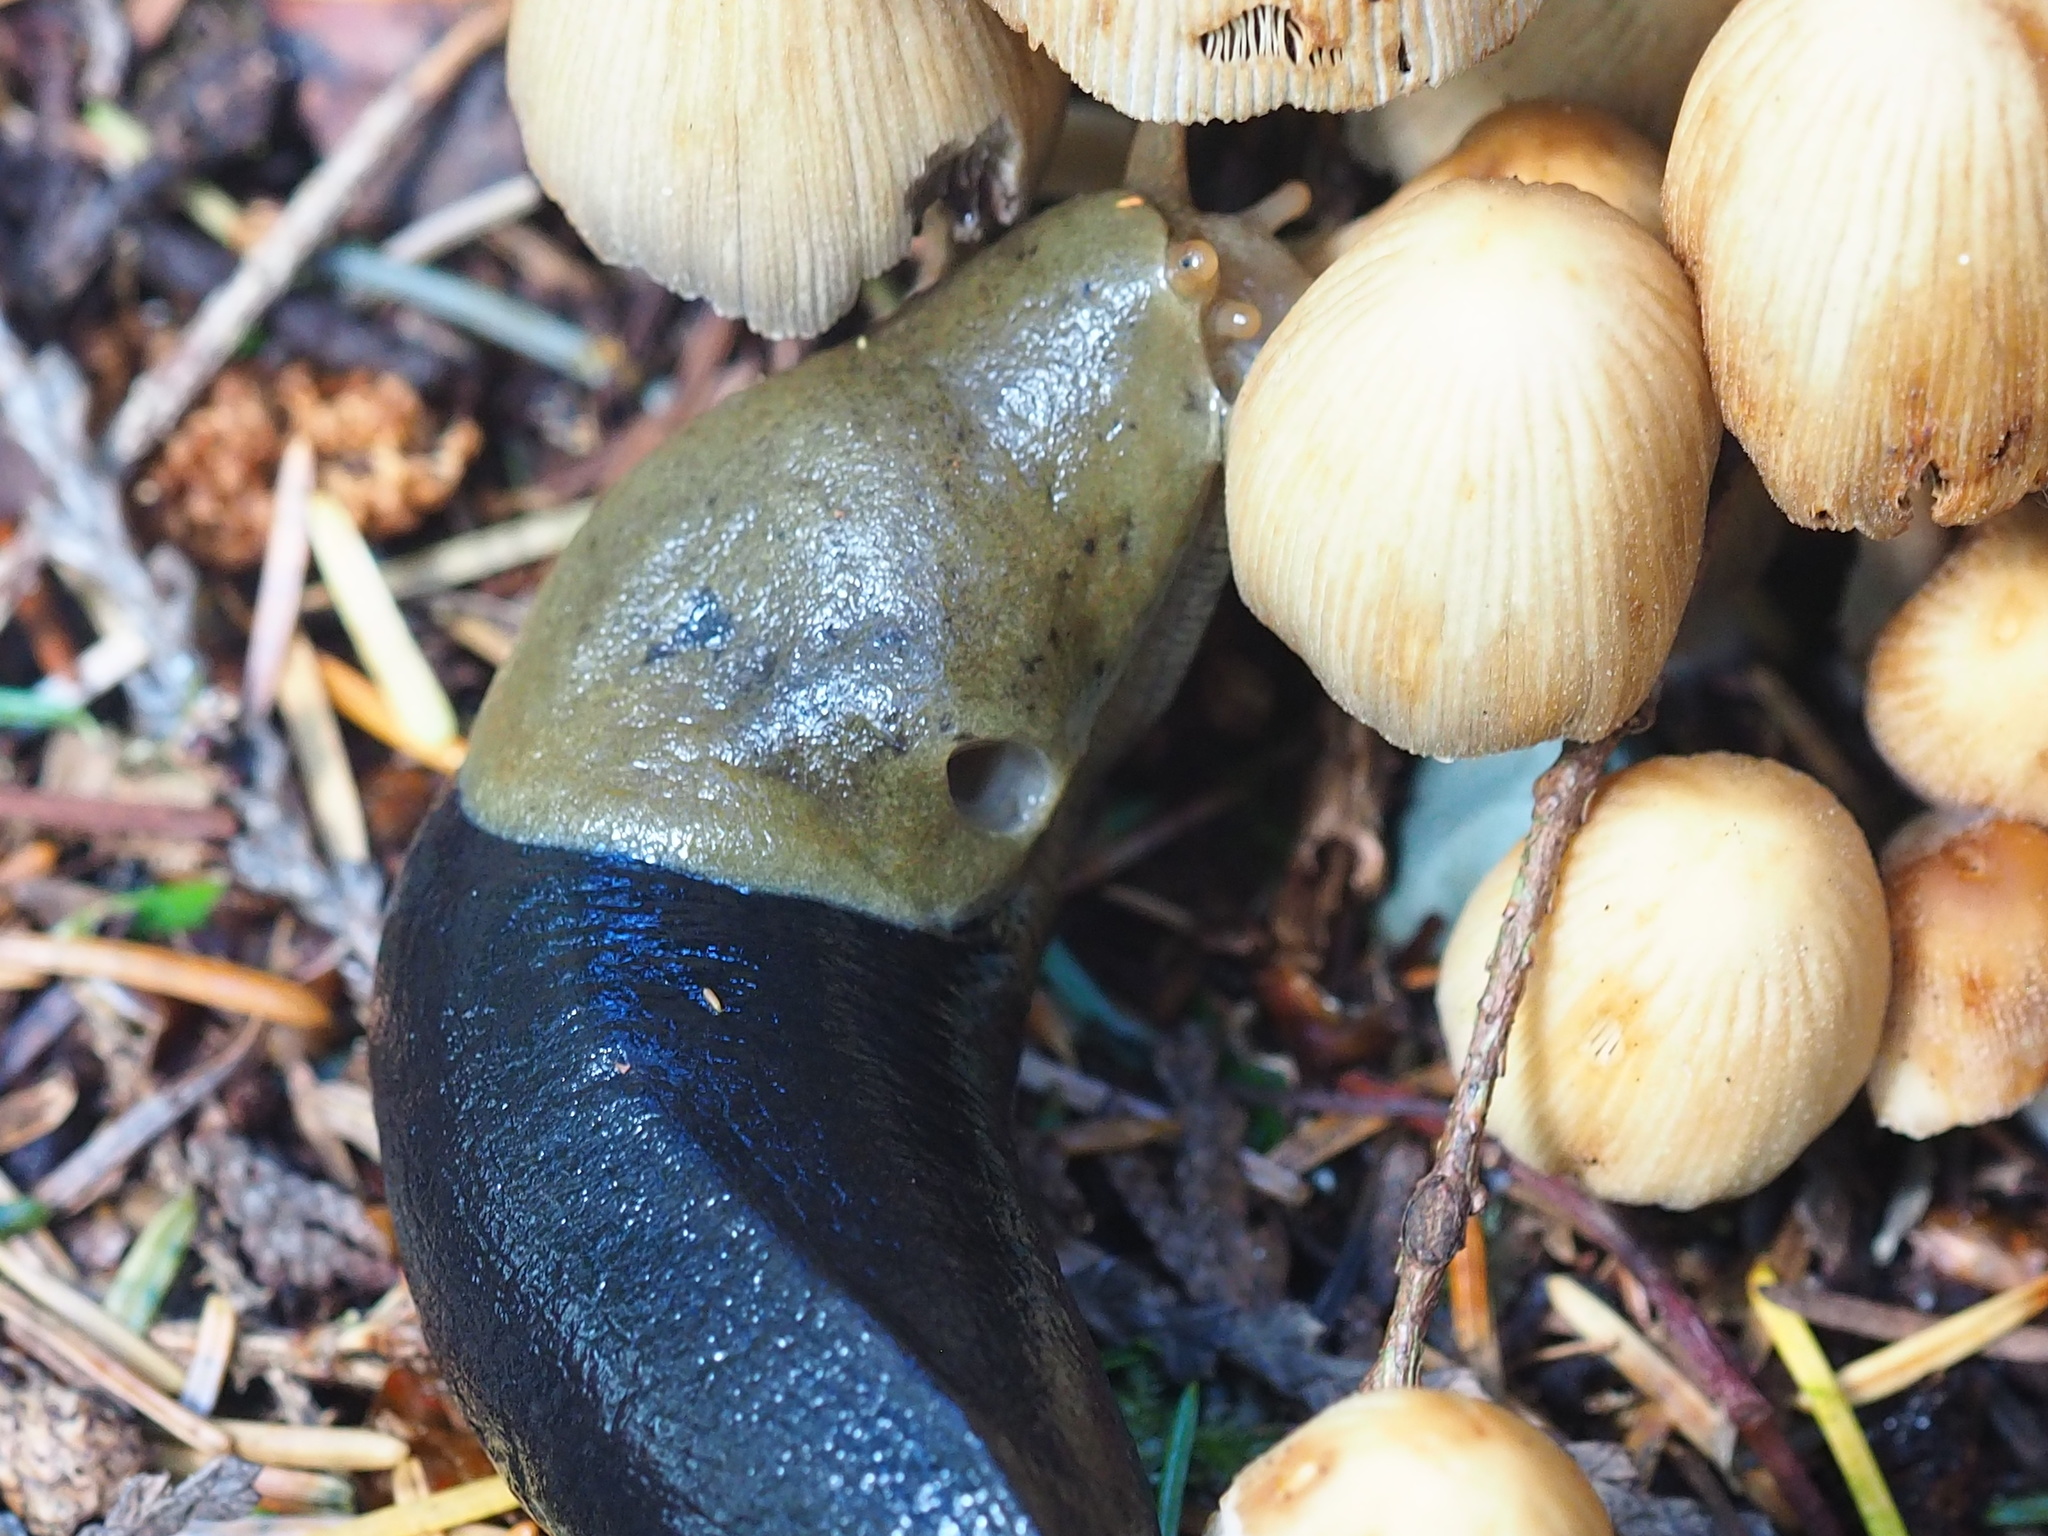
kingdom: Animalia
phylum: Mollusca
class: Gastropoda
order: Stylommatophora
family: Ariolimacidae
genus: Ariolimax
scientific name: Ariolimax columbianus
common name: Pacific banana slug
